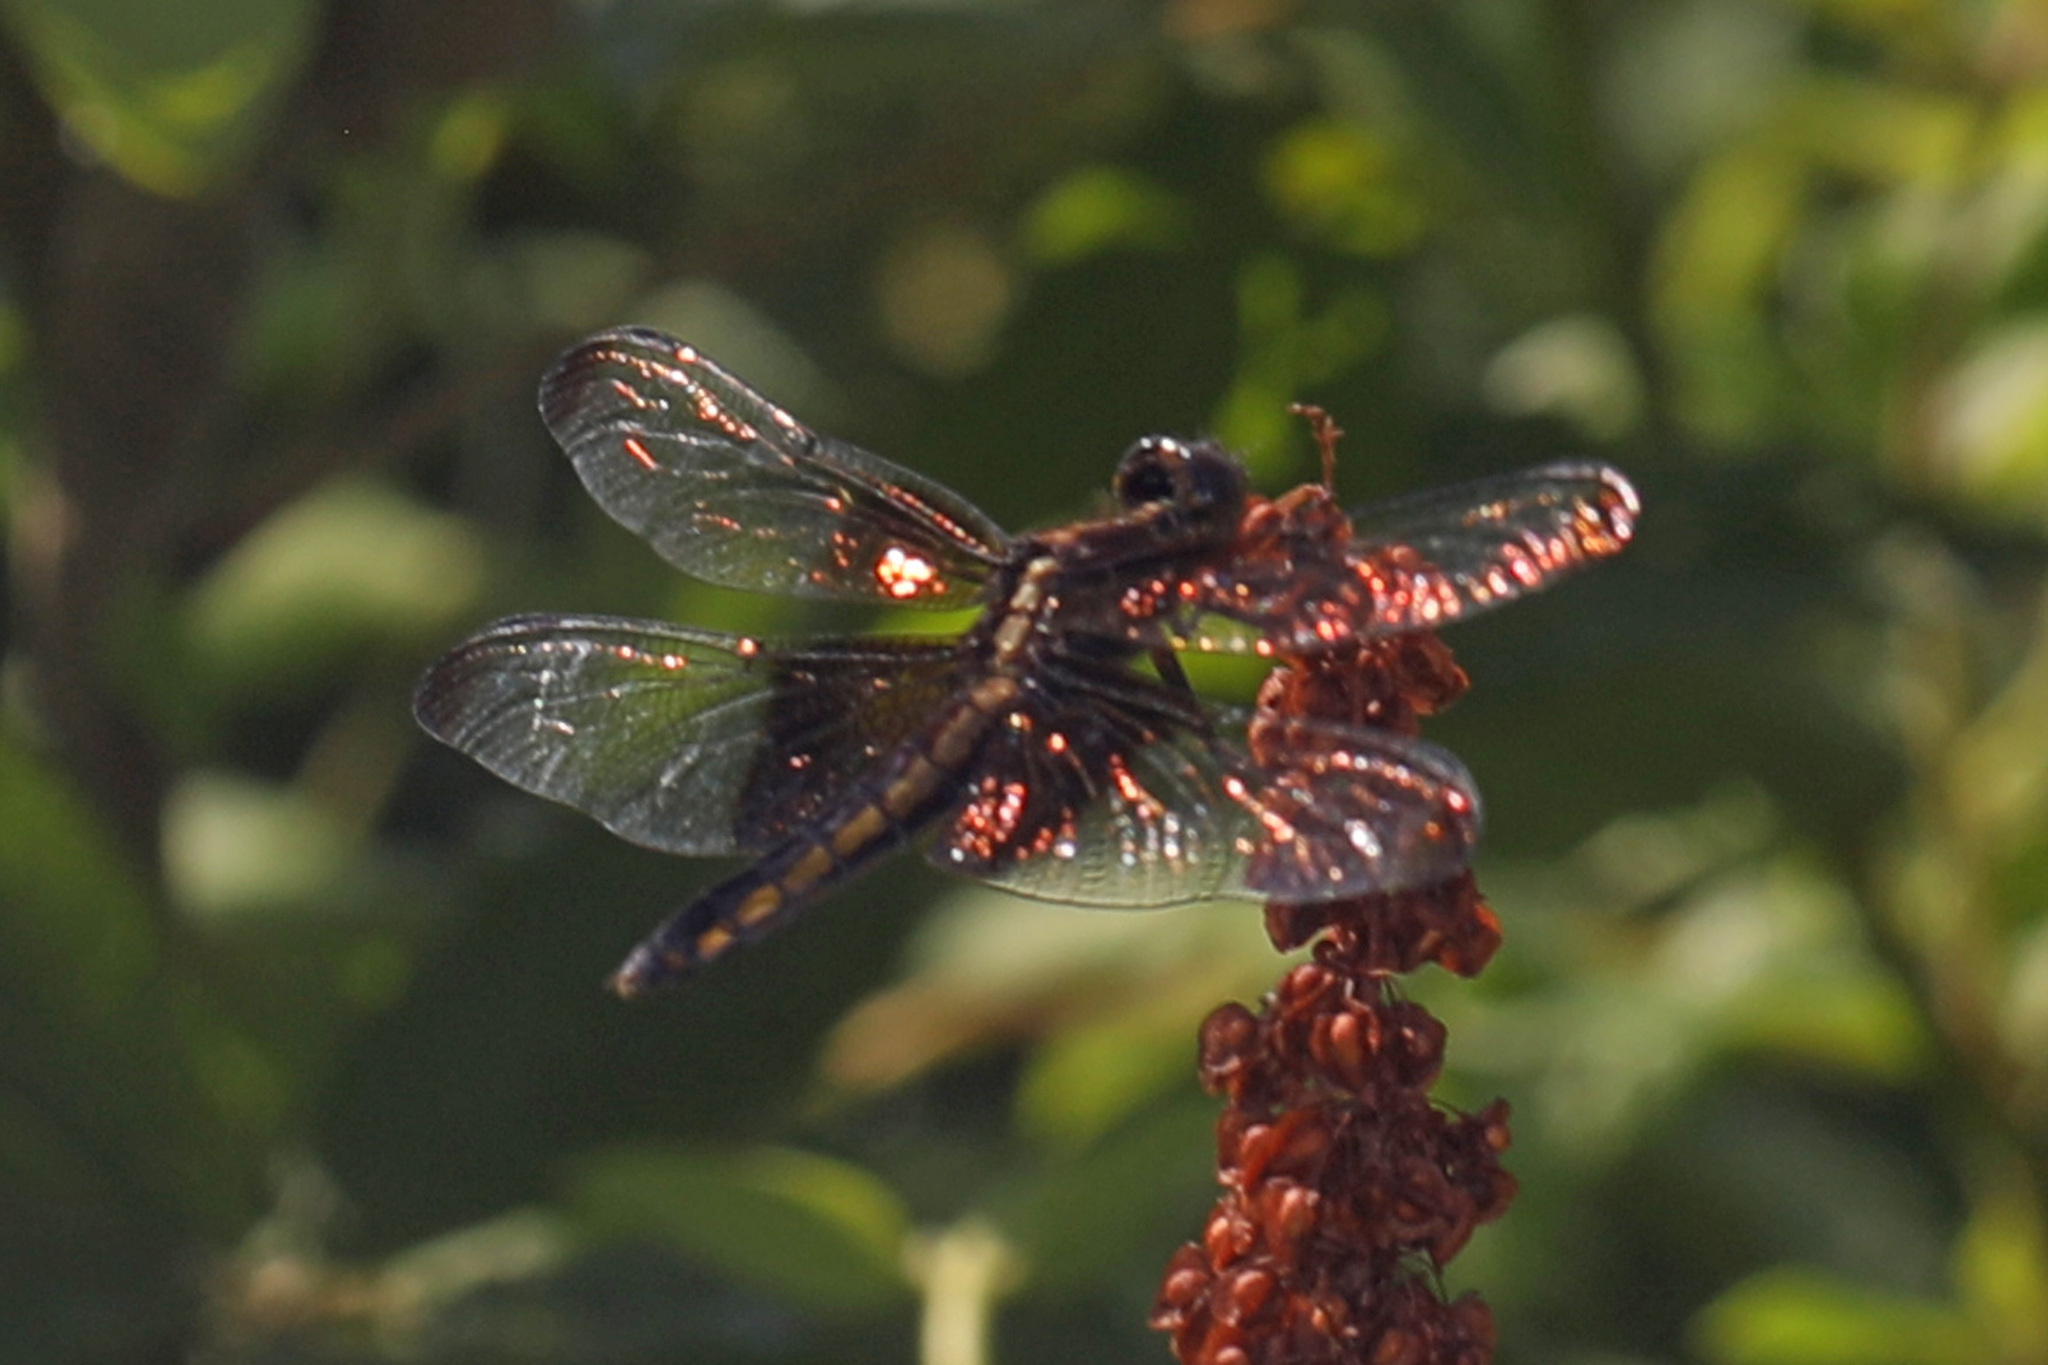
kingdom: Animalia
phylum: Arthropoda
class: Insecta
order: Odonata
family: Libellulidae
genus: Libellula
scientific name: Libellula luctuosa
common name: Widow skimmer
